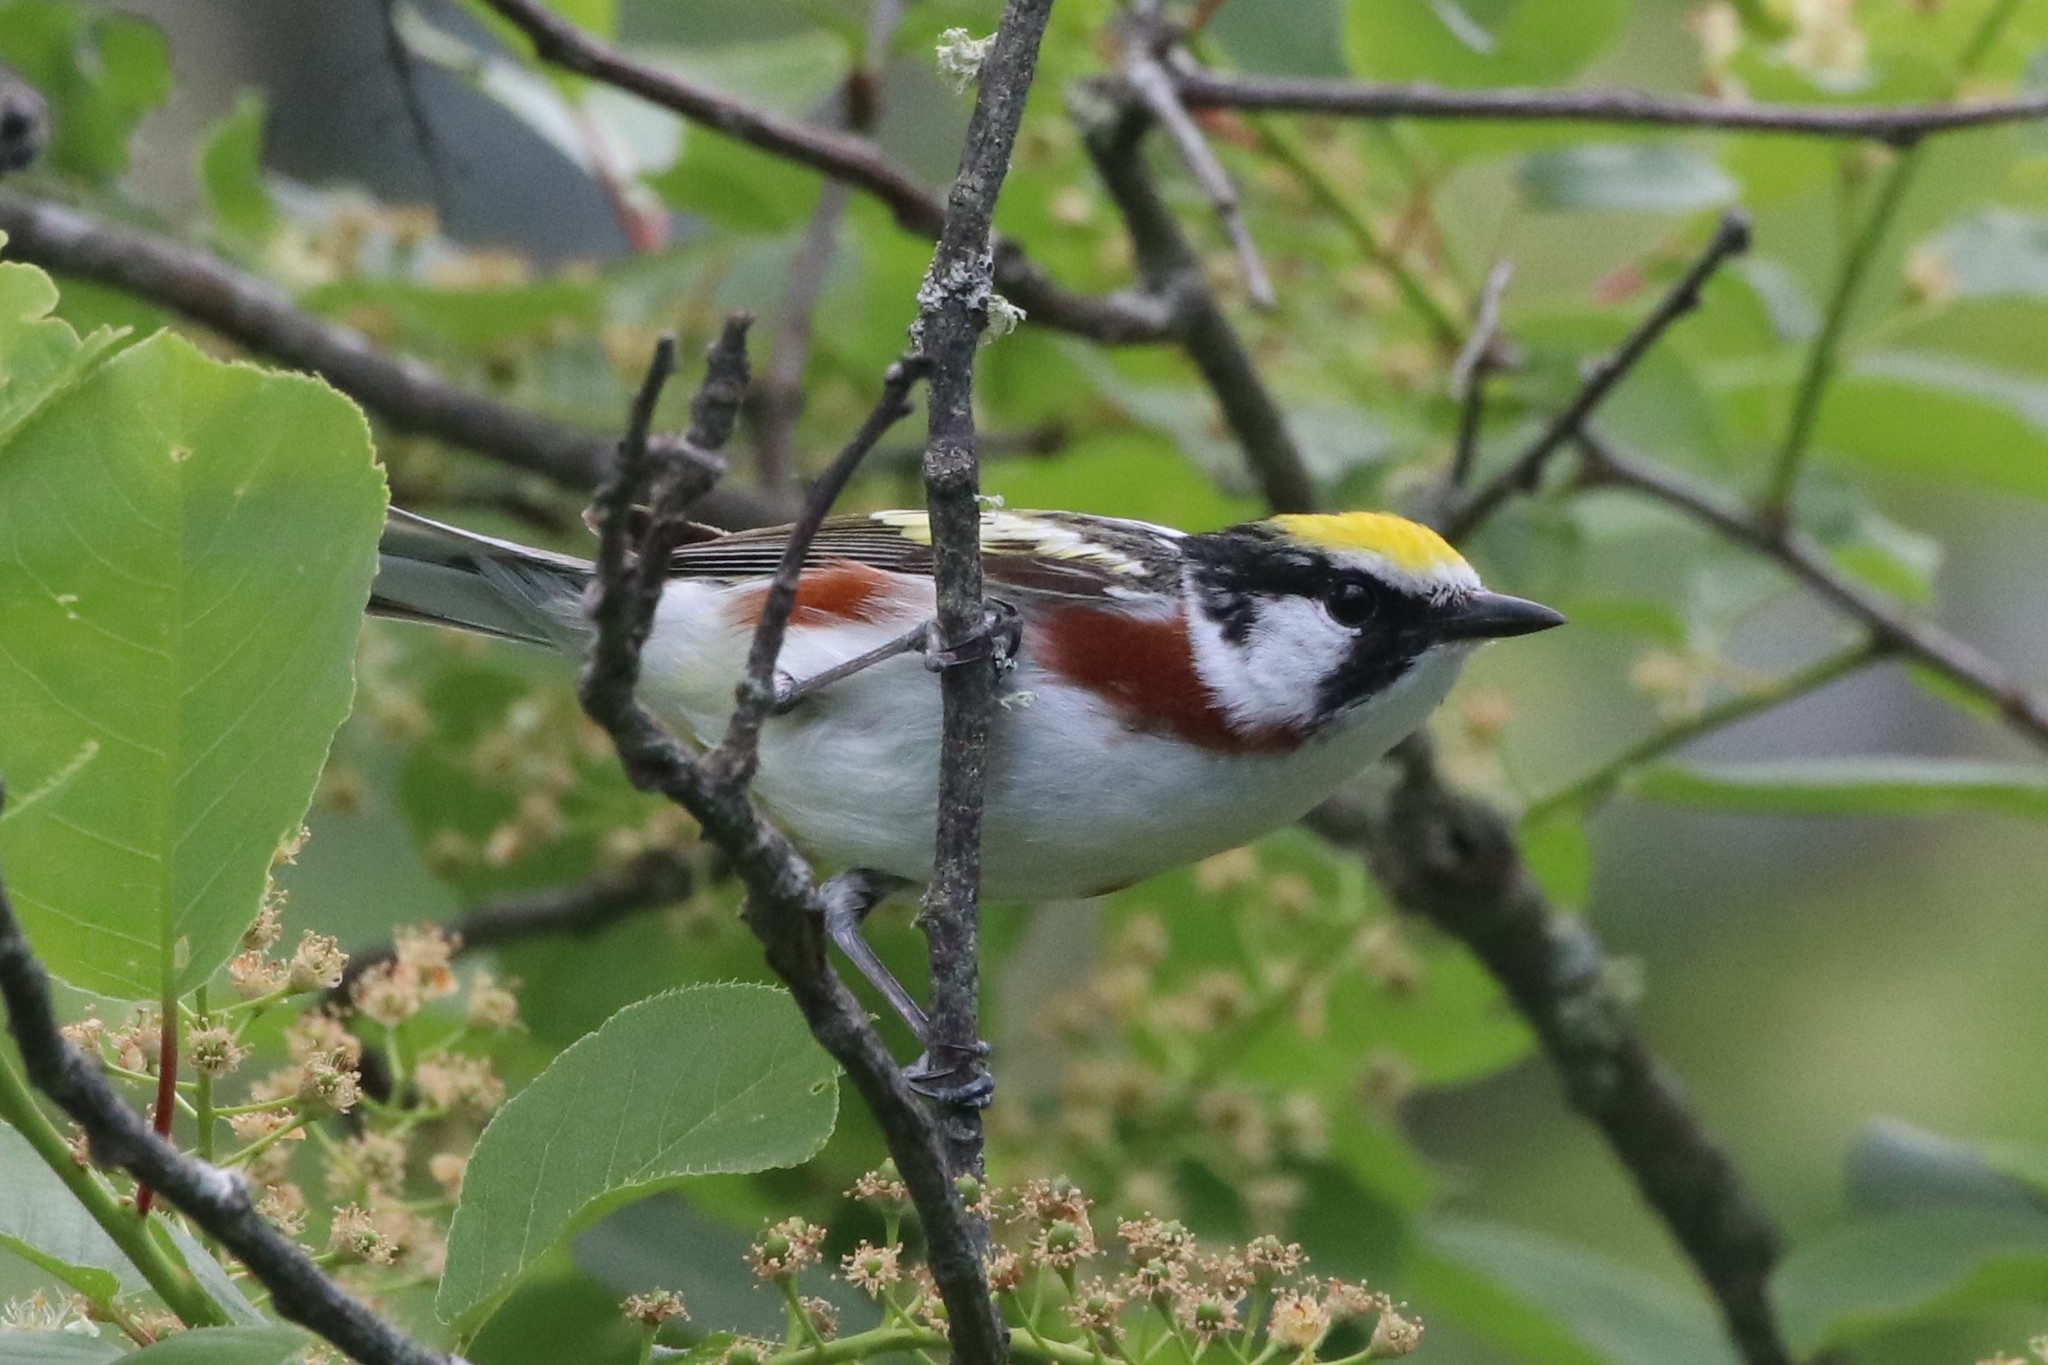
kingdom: Animalia
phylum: Chordata
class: Aves
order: Passeriformes
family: Parulidae
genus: Setophaga
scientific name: Setophaga pensylvanica
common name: Chestnut-sided warbler
